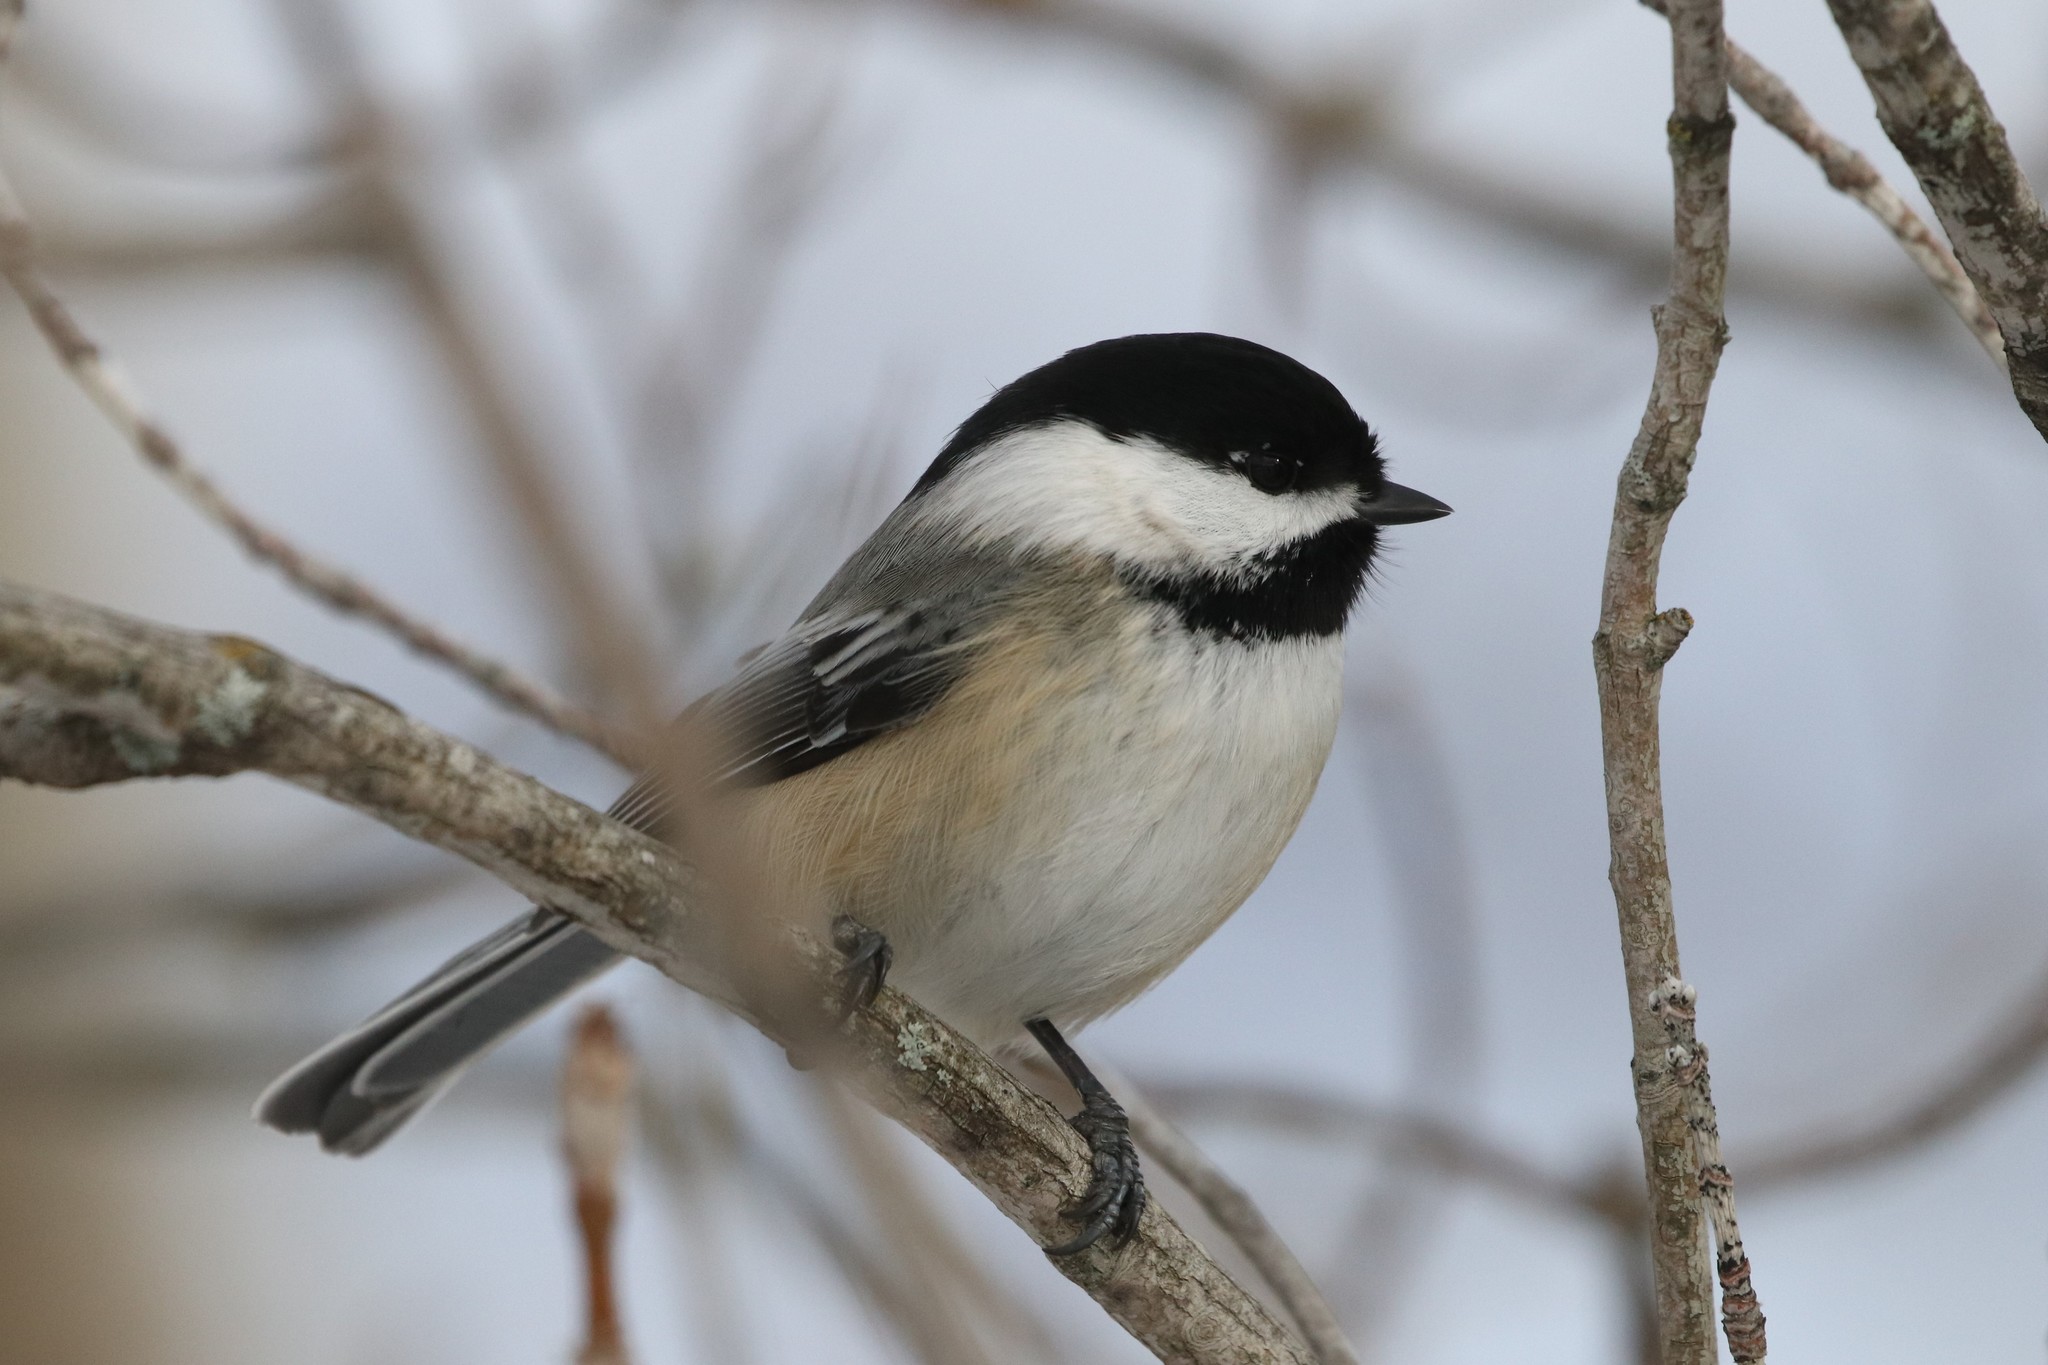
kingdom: Animalia
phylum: Chordata
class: Aves
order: Passeriformes
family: Paridae
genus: Poecile
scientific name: Poecile atricapillus
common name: Black-capped chickadee
